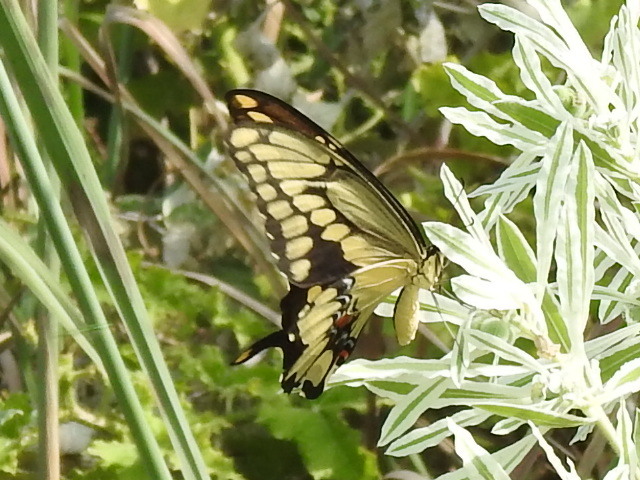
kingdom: Animalia
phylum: Arthropoda
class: Insecta
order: Lepidoptera
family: Papilionidae
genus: Papilio
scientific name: Papilio cresphontes
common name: Giant swallowtail
